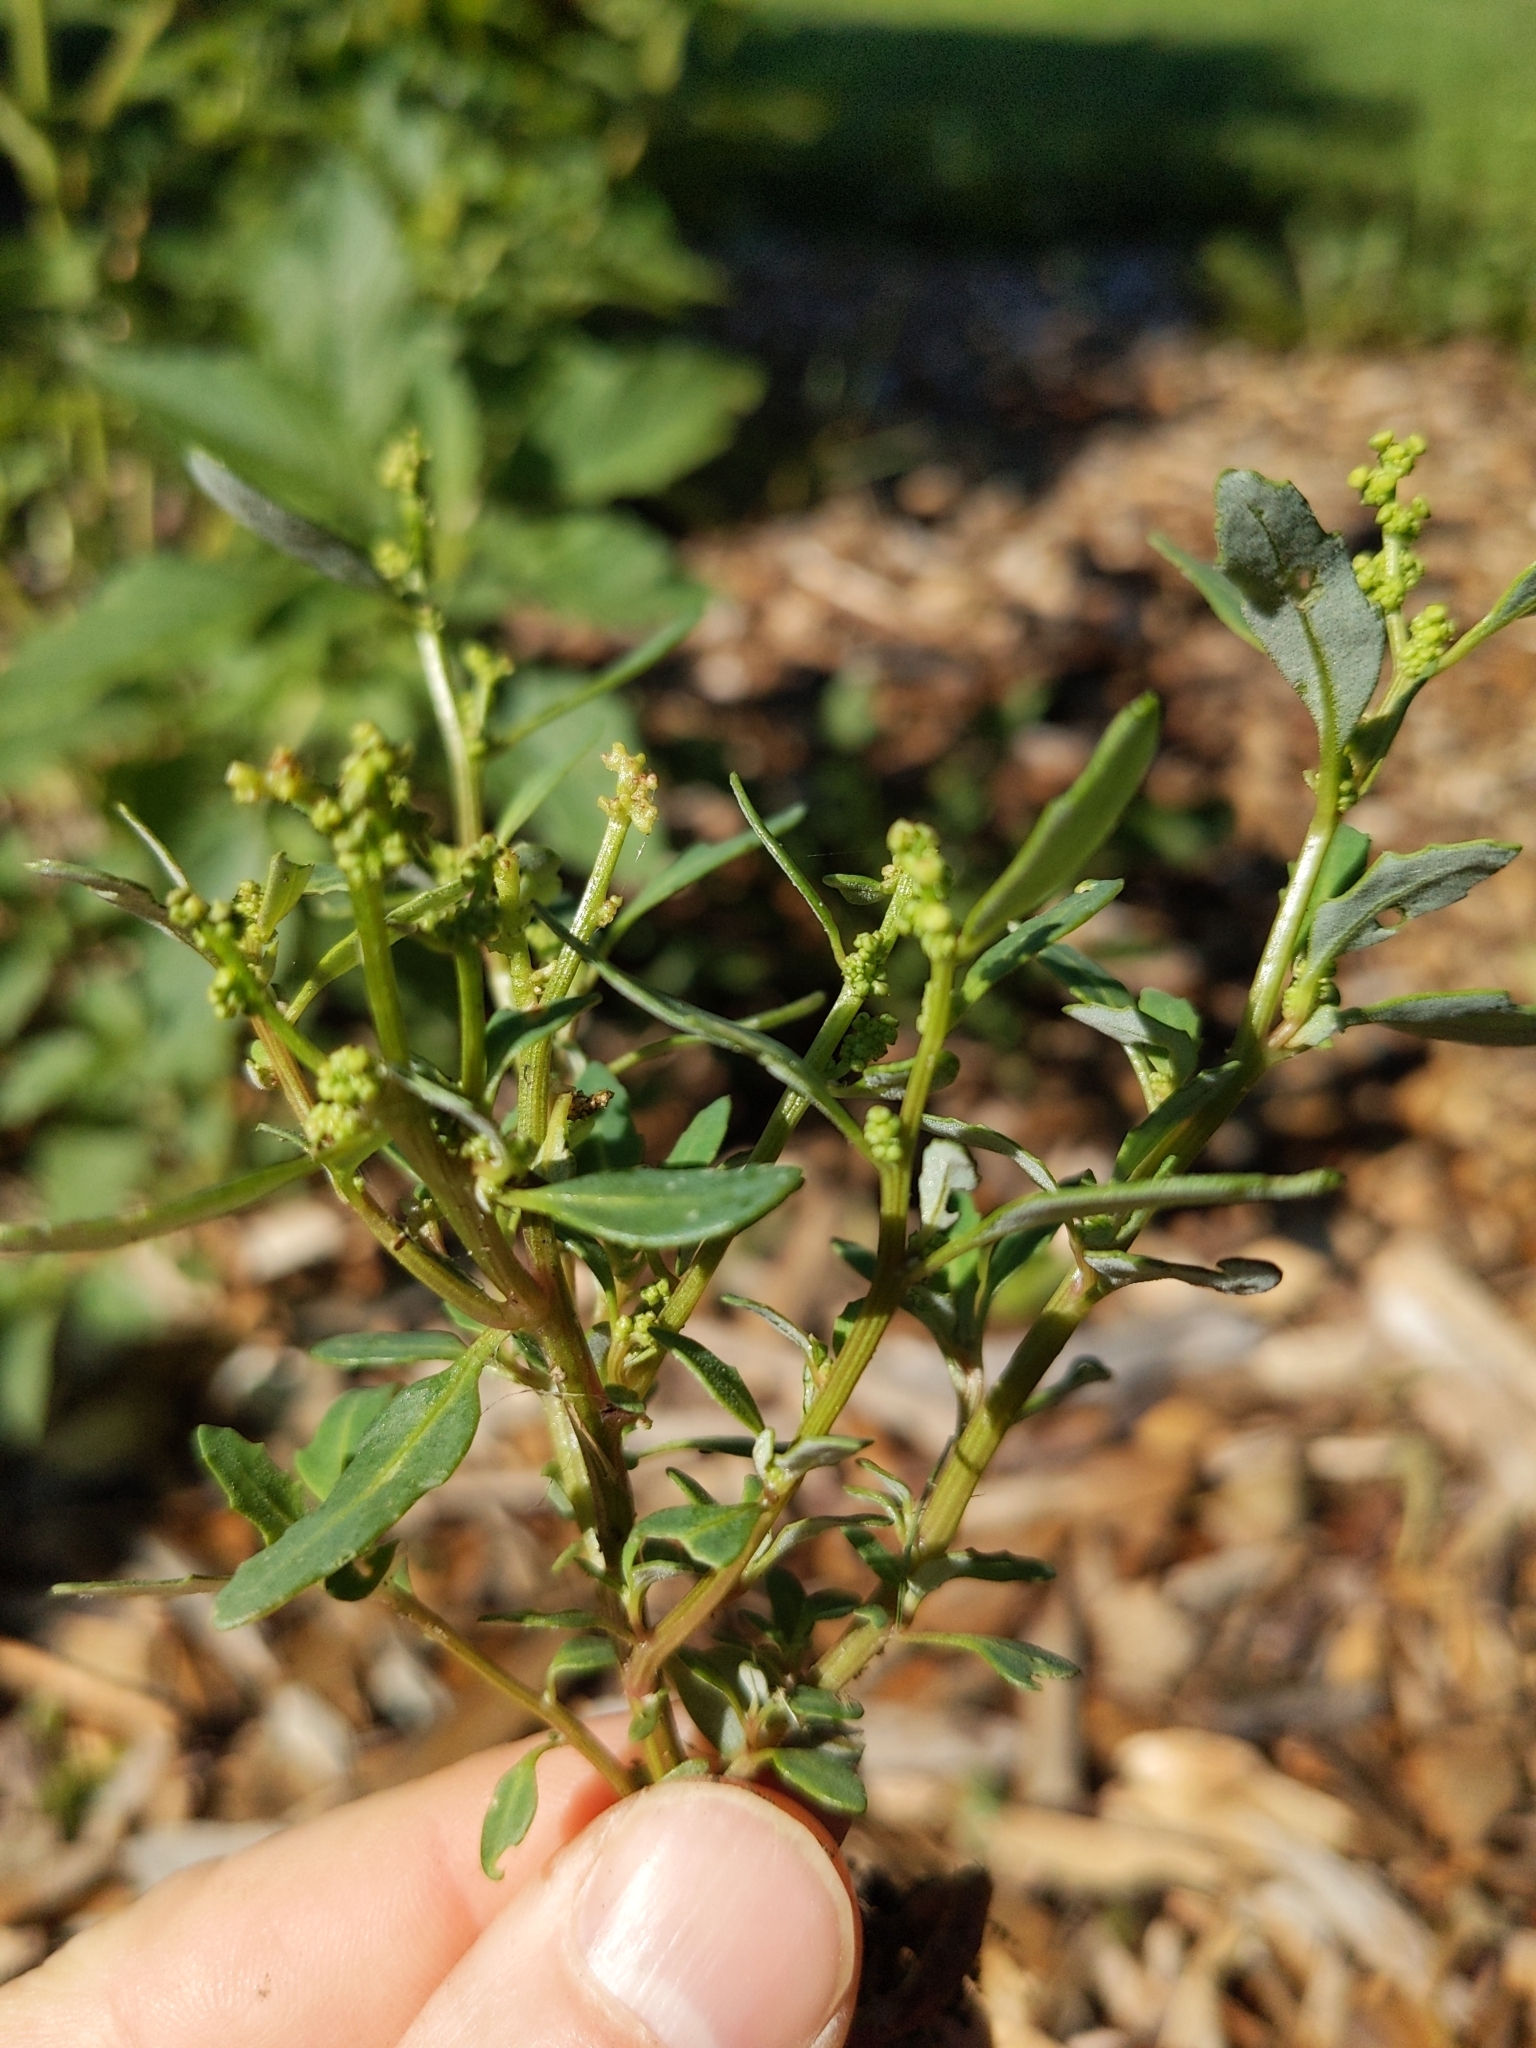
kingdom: Plantae
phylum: Tracheophyta
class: Magnoliopsida
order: Caryophyllales
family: Amaranthaceae
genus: Oxybasis
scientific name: Oxybasis glauca
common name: Glaucous goosefoot
